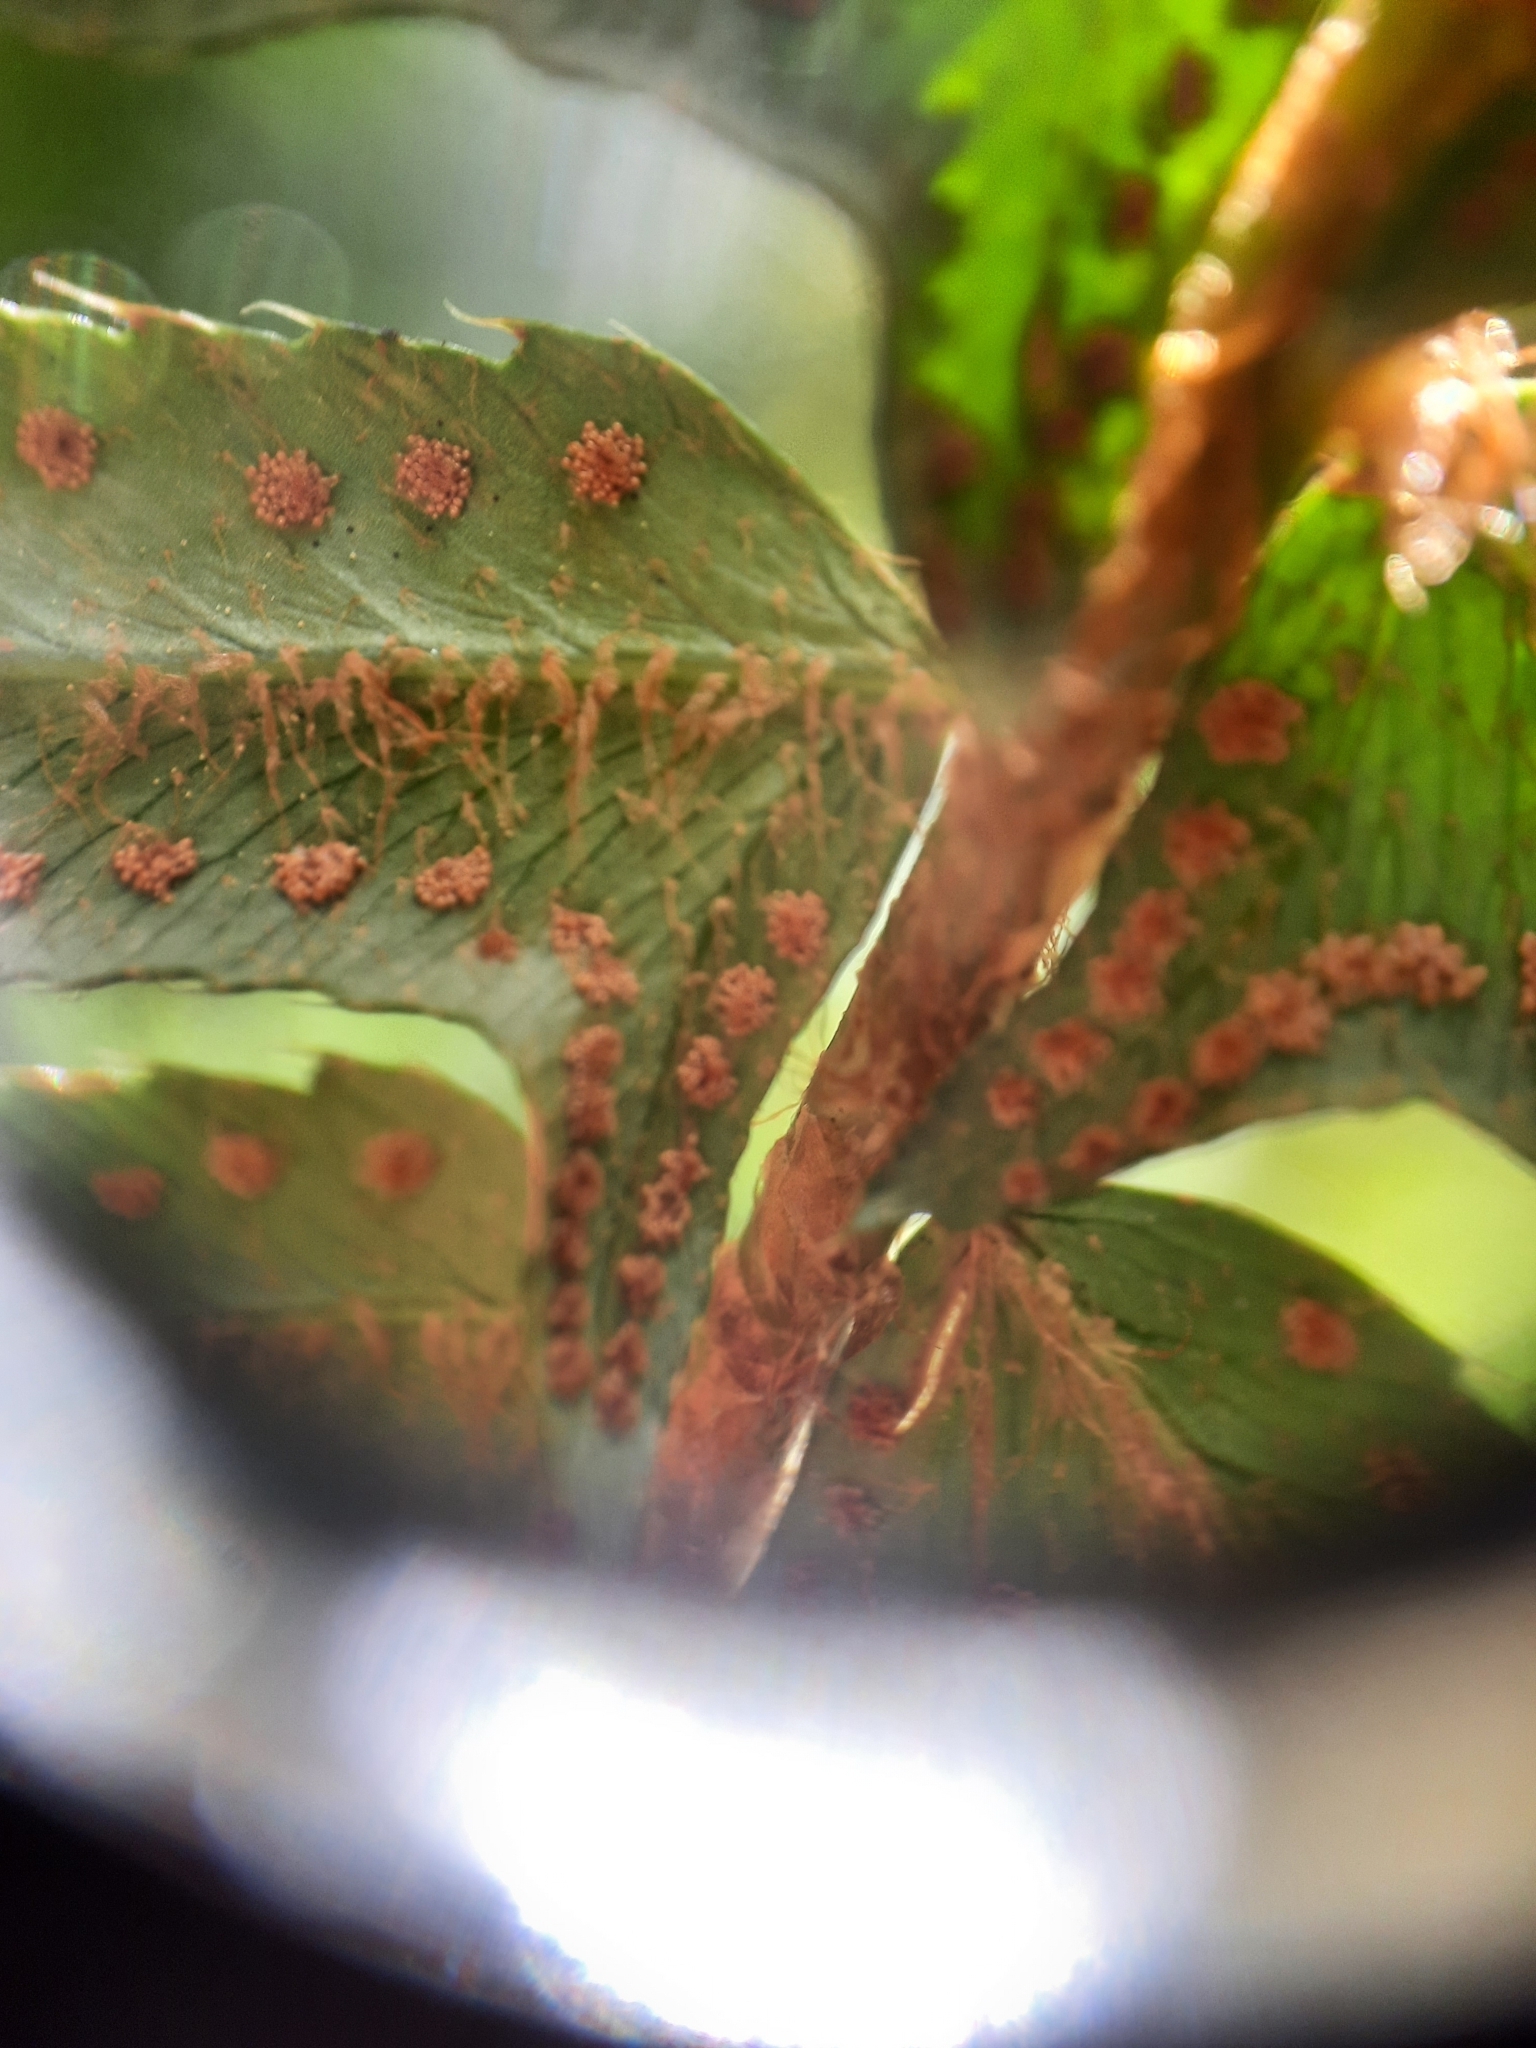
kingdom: Plantae
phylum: Tracheophyta
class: Polypodiopsida
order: Polypodiales
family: Dryopteridaceae
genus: Polystichum
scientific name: Polystichum munitum
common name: Western sword-fern
